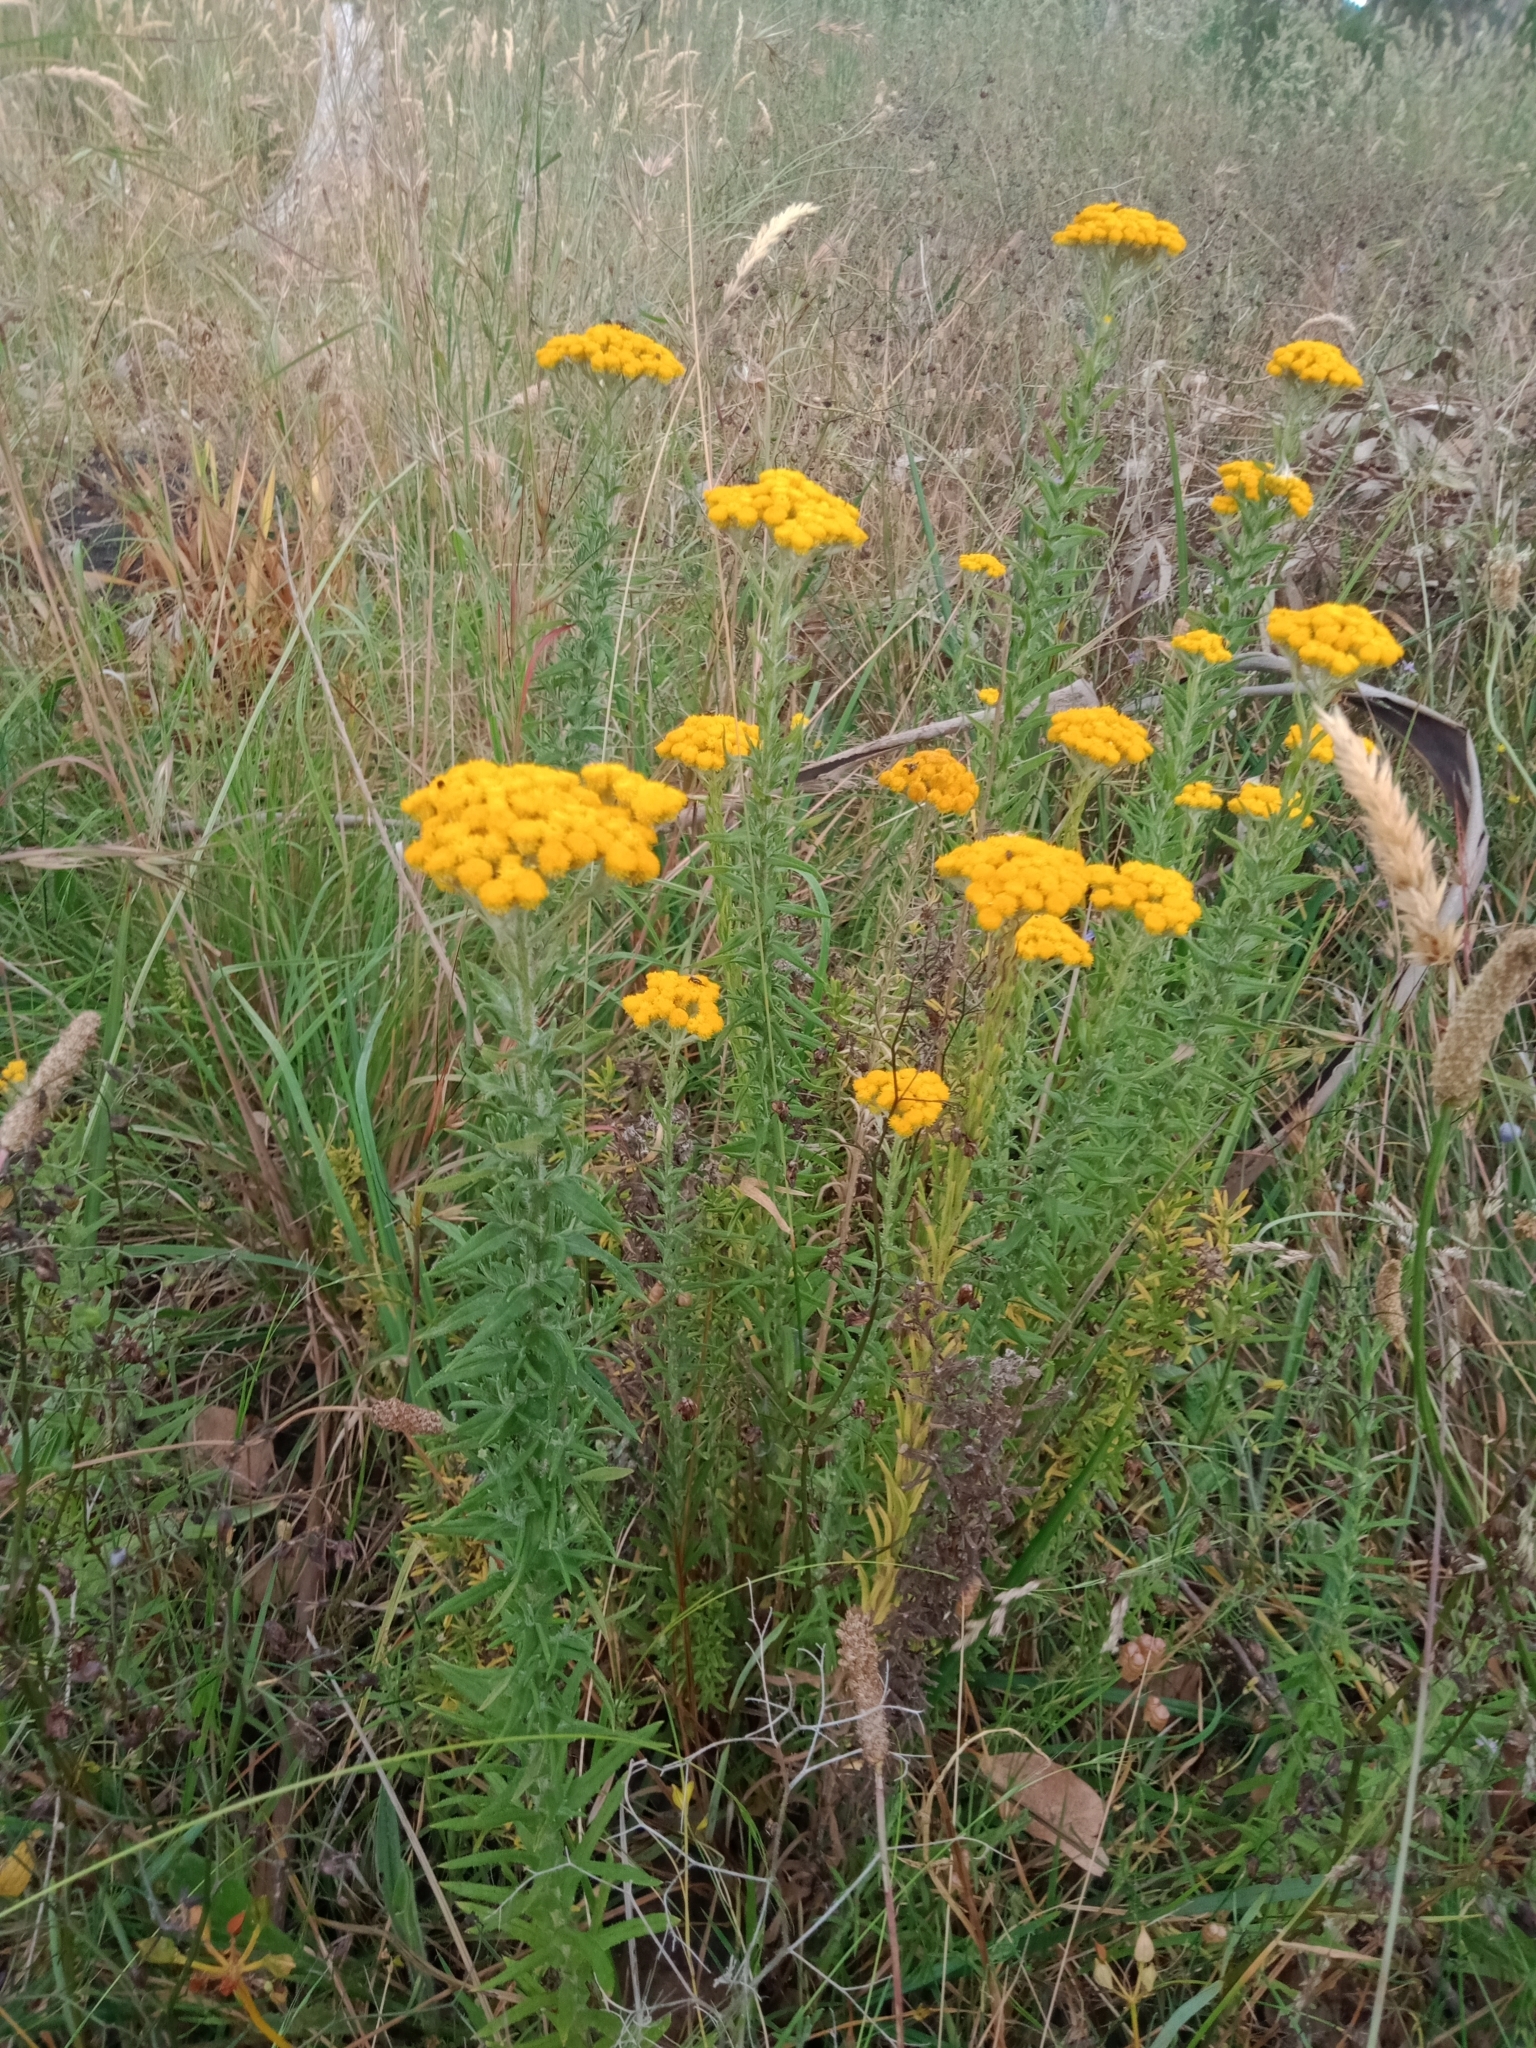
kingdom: Plantae
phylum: Tracheophyta
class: Magnoliopsida
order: Asterales
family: Asteraceae
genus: Chrysocephalum
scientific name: Chrysocephalum semipapposum
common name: Clustered everlasting
